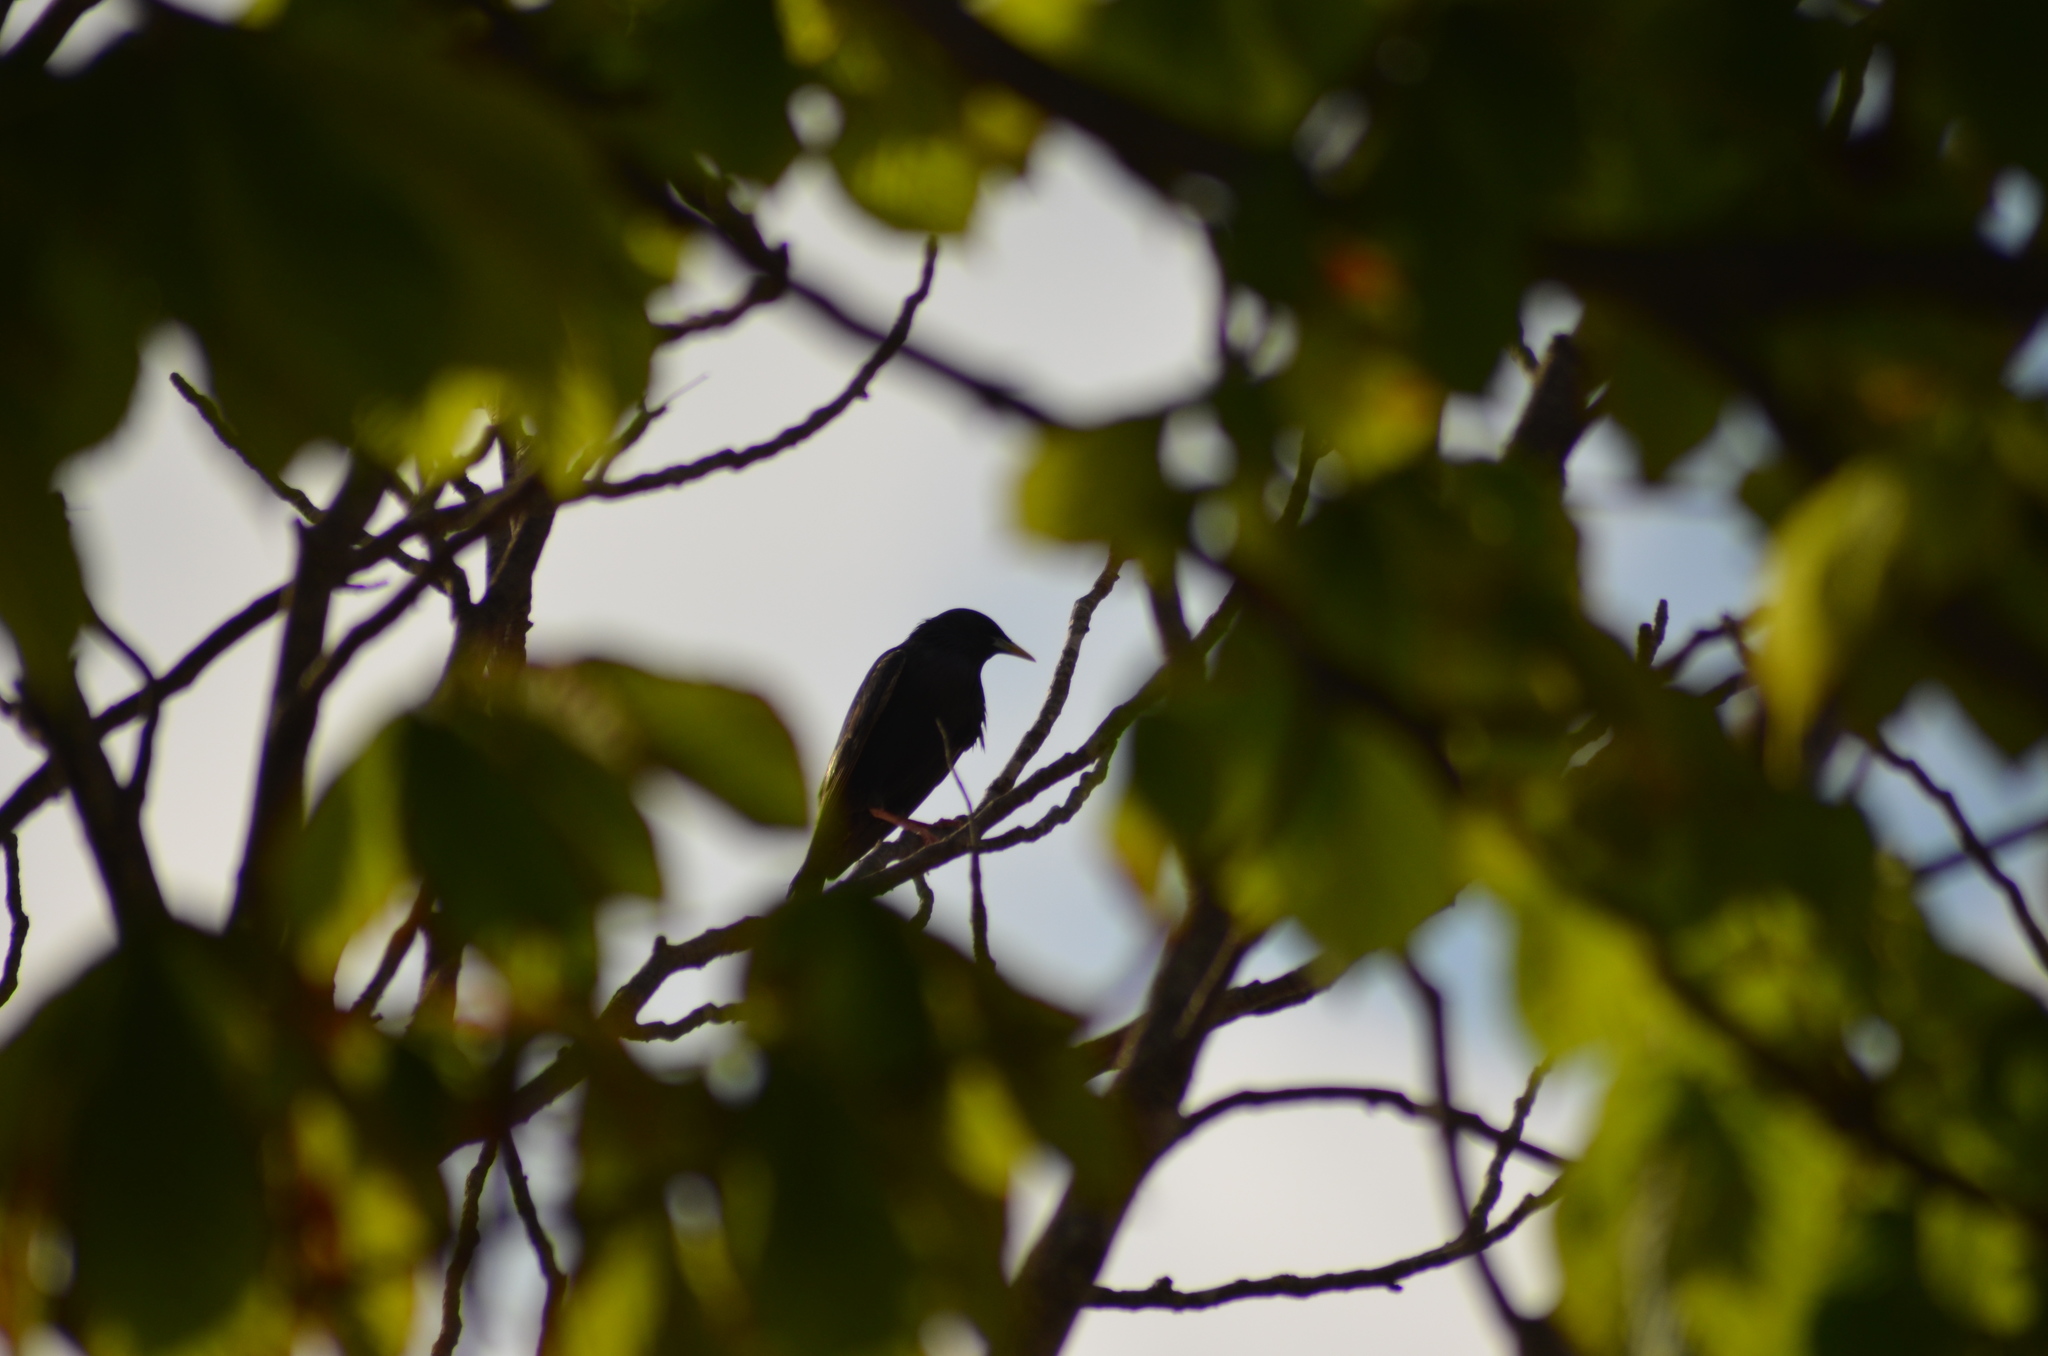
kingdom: Animalia
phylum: Chordata
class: Aves
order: Passeriformes
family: Sturnidae
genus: Sturnus
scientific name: Sturnus unicolor
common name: Spotless starling
